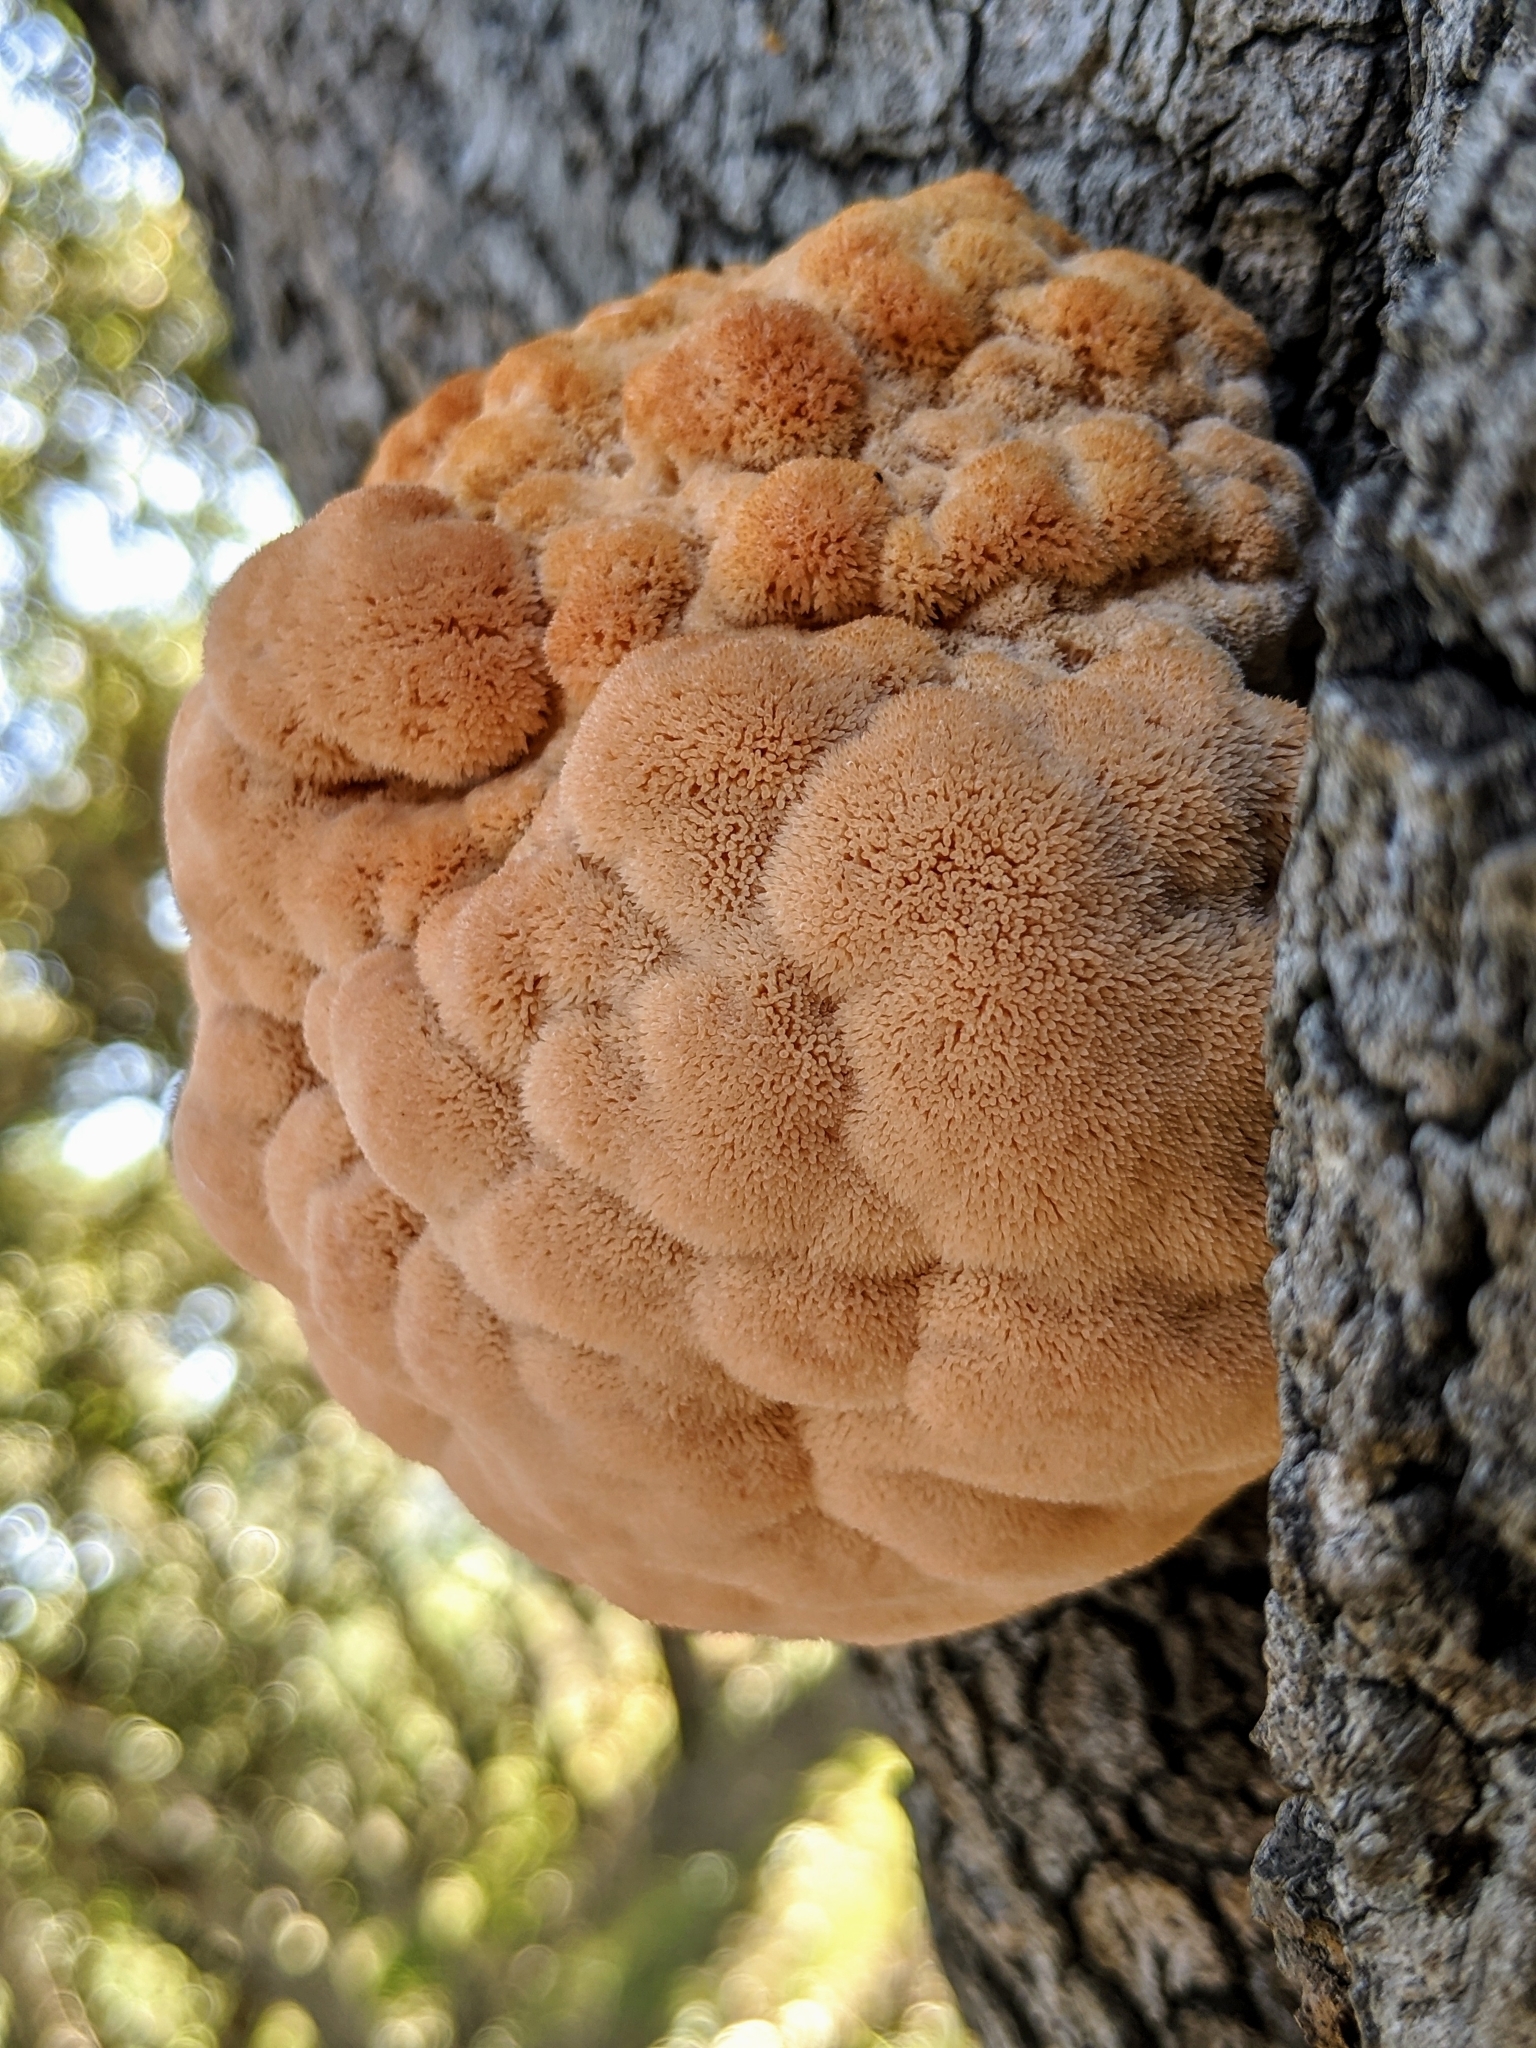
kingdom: Fungi
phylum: Basidiomycota
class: Agaricomycetes
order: Russulales
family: Hericiaceae
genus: Hericium
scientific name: Hericium erinaceus
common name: Bearded tooth
